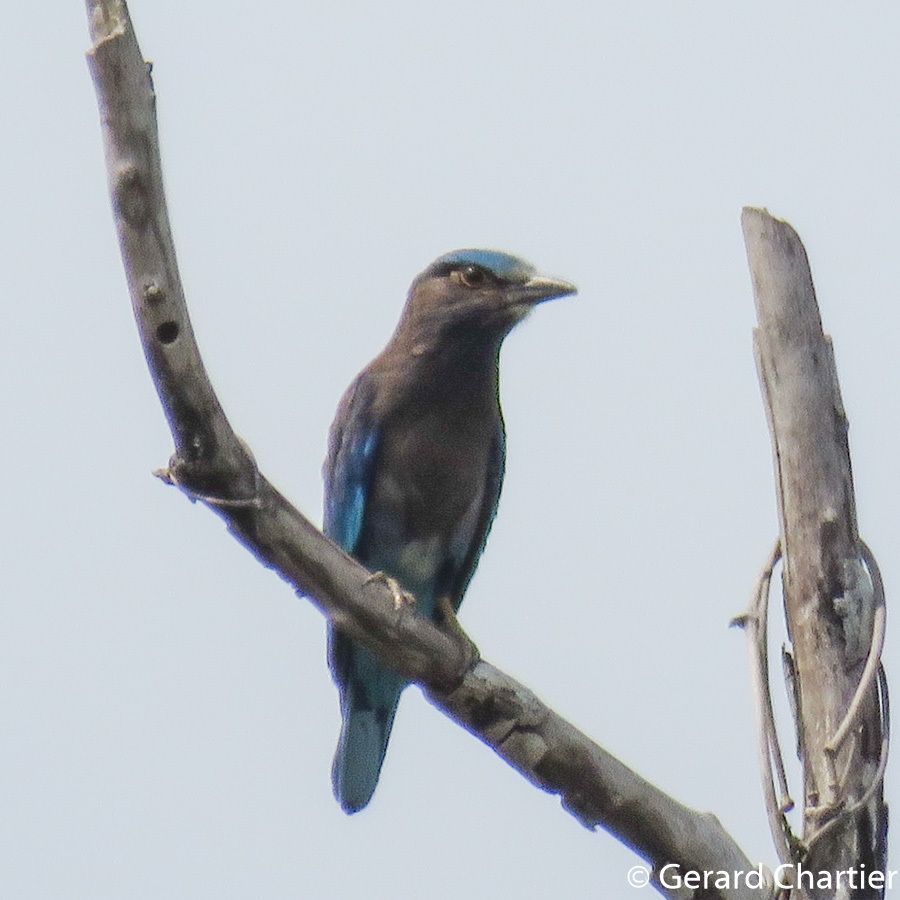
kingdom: Animalia
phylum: Chordata
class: Aves
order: Coraciiformes
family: Coraciidae
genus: Coracias
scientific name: Coracias affinis
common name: Indochinese roller
